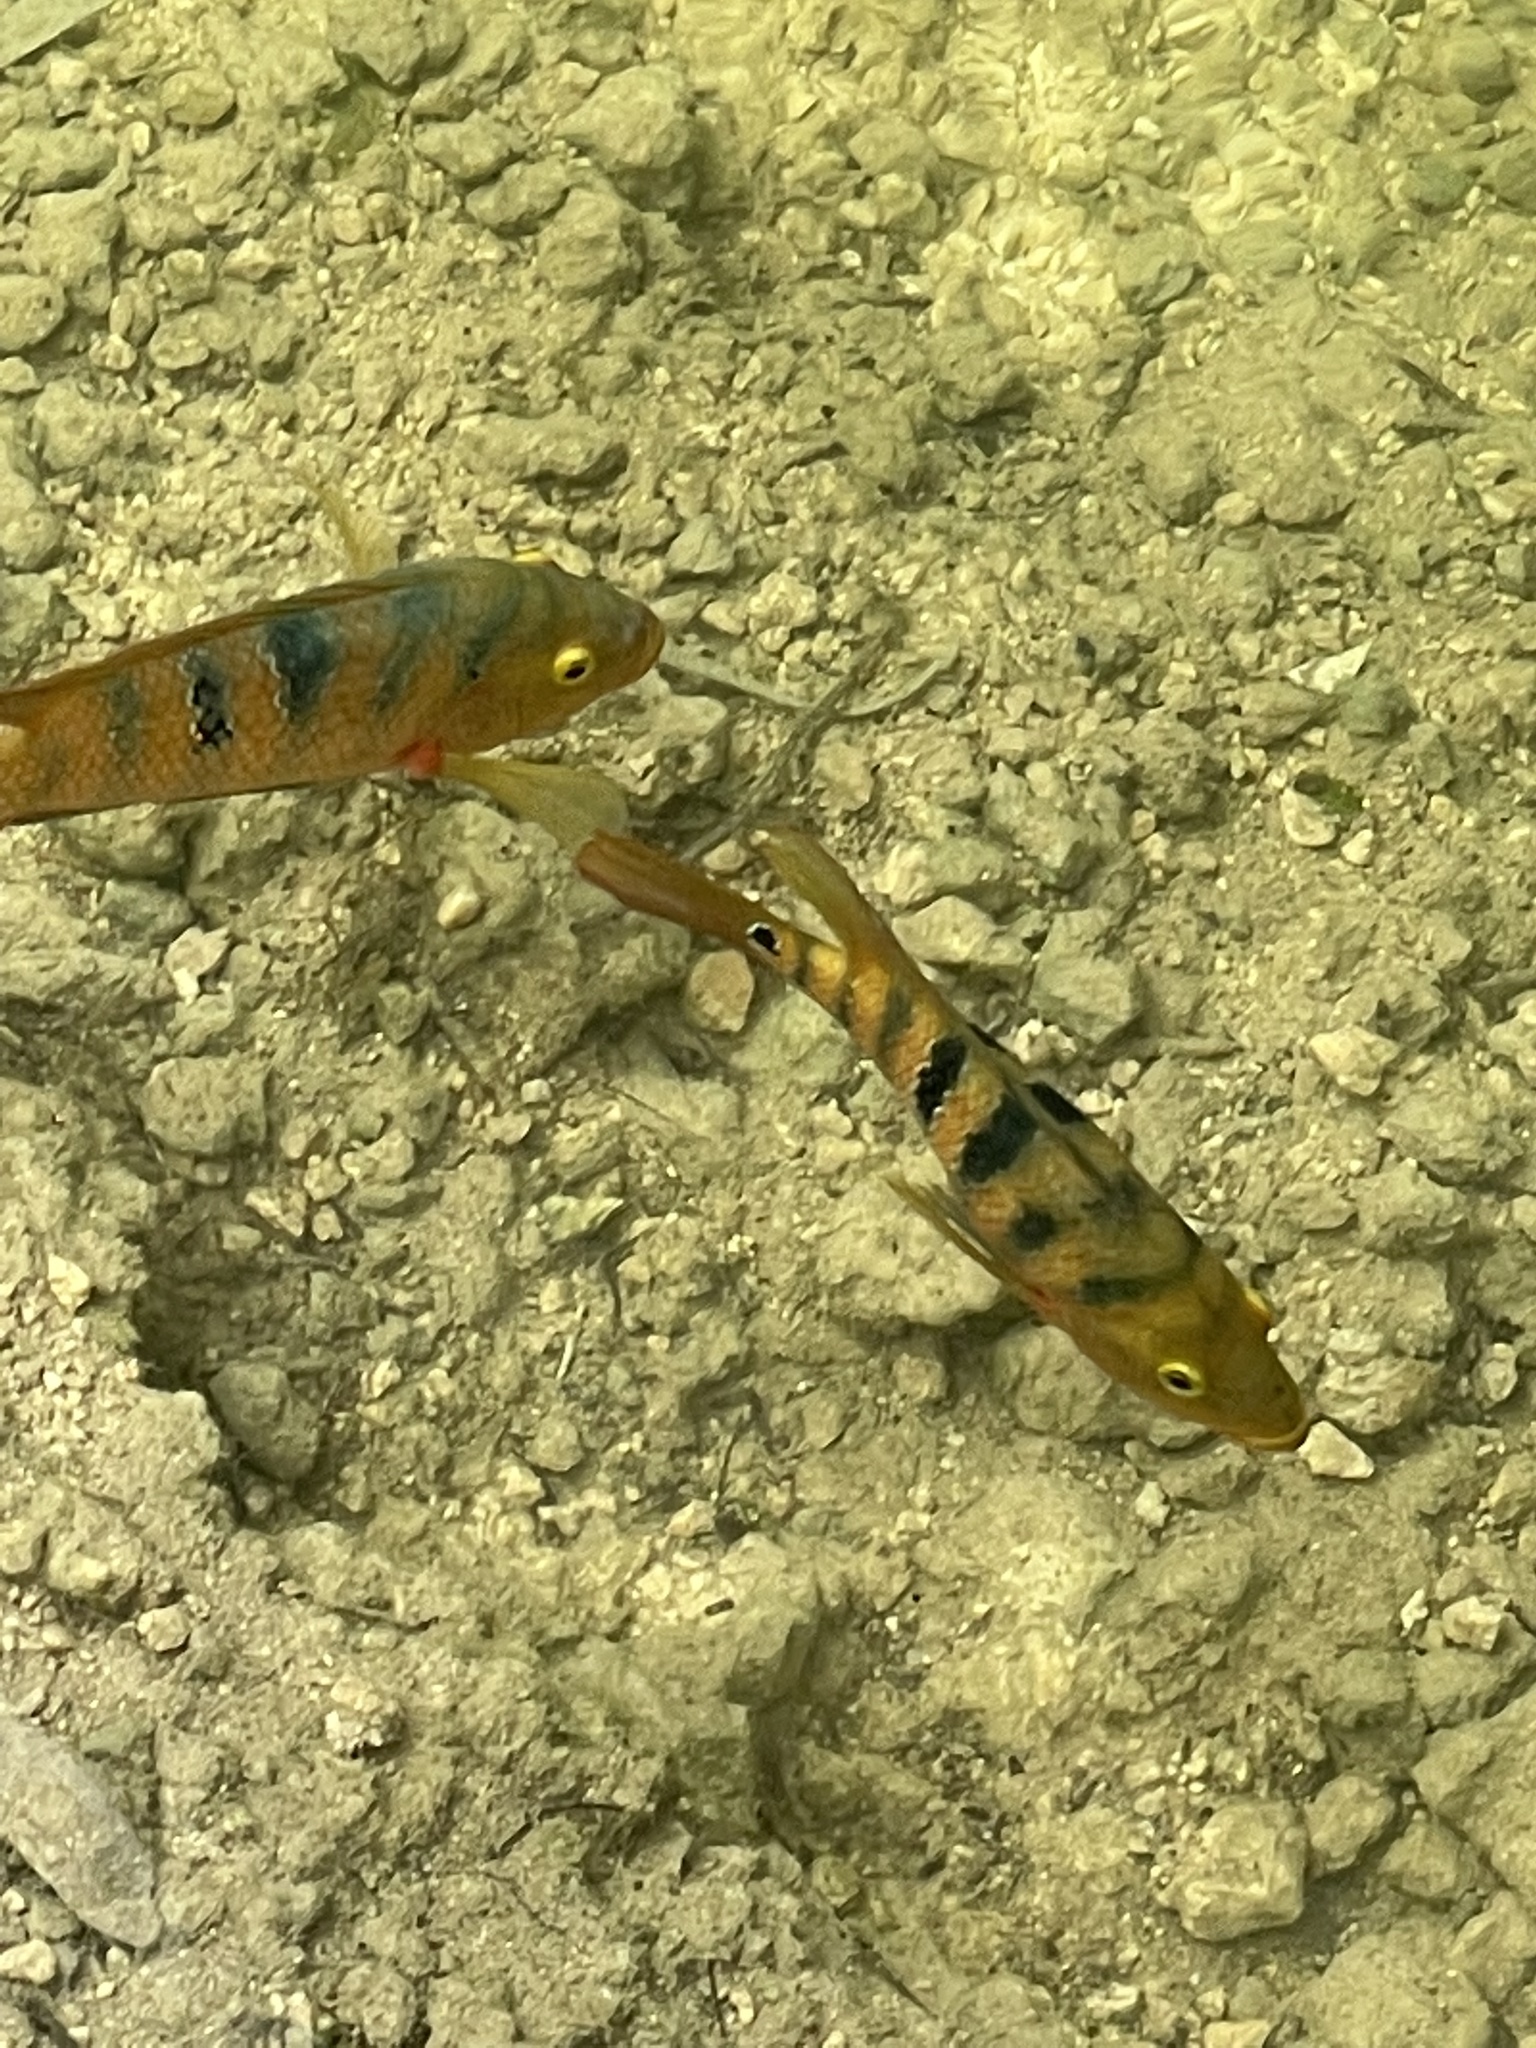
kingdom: Animalia
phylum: Chordata
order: Perciformes
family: Cichlidae
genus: Mayaheros
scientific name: Mayaheros urophthalmus
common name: Mayan cichlid
